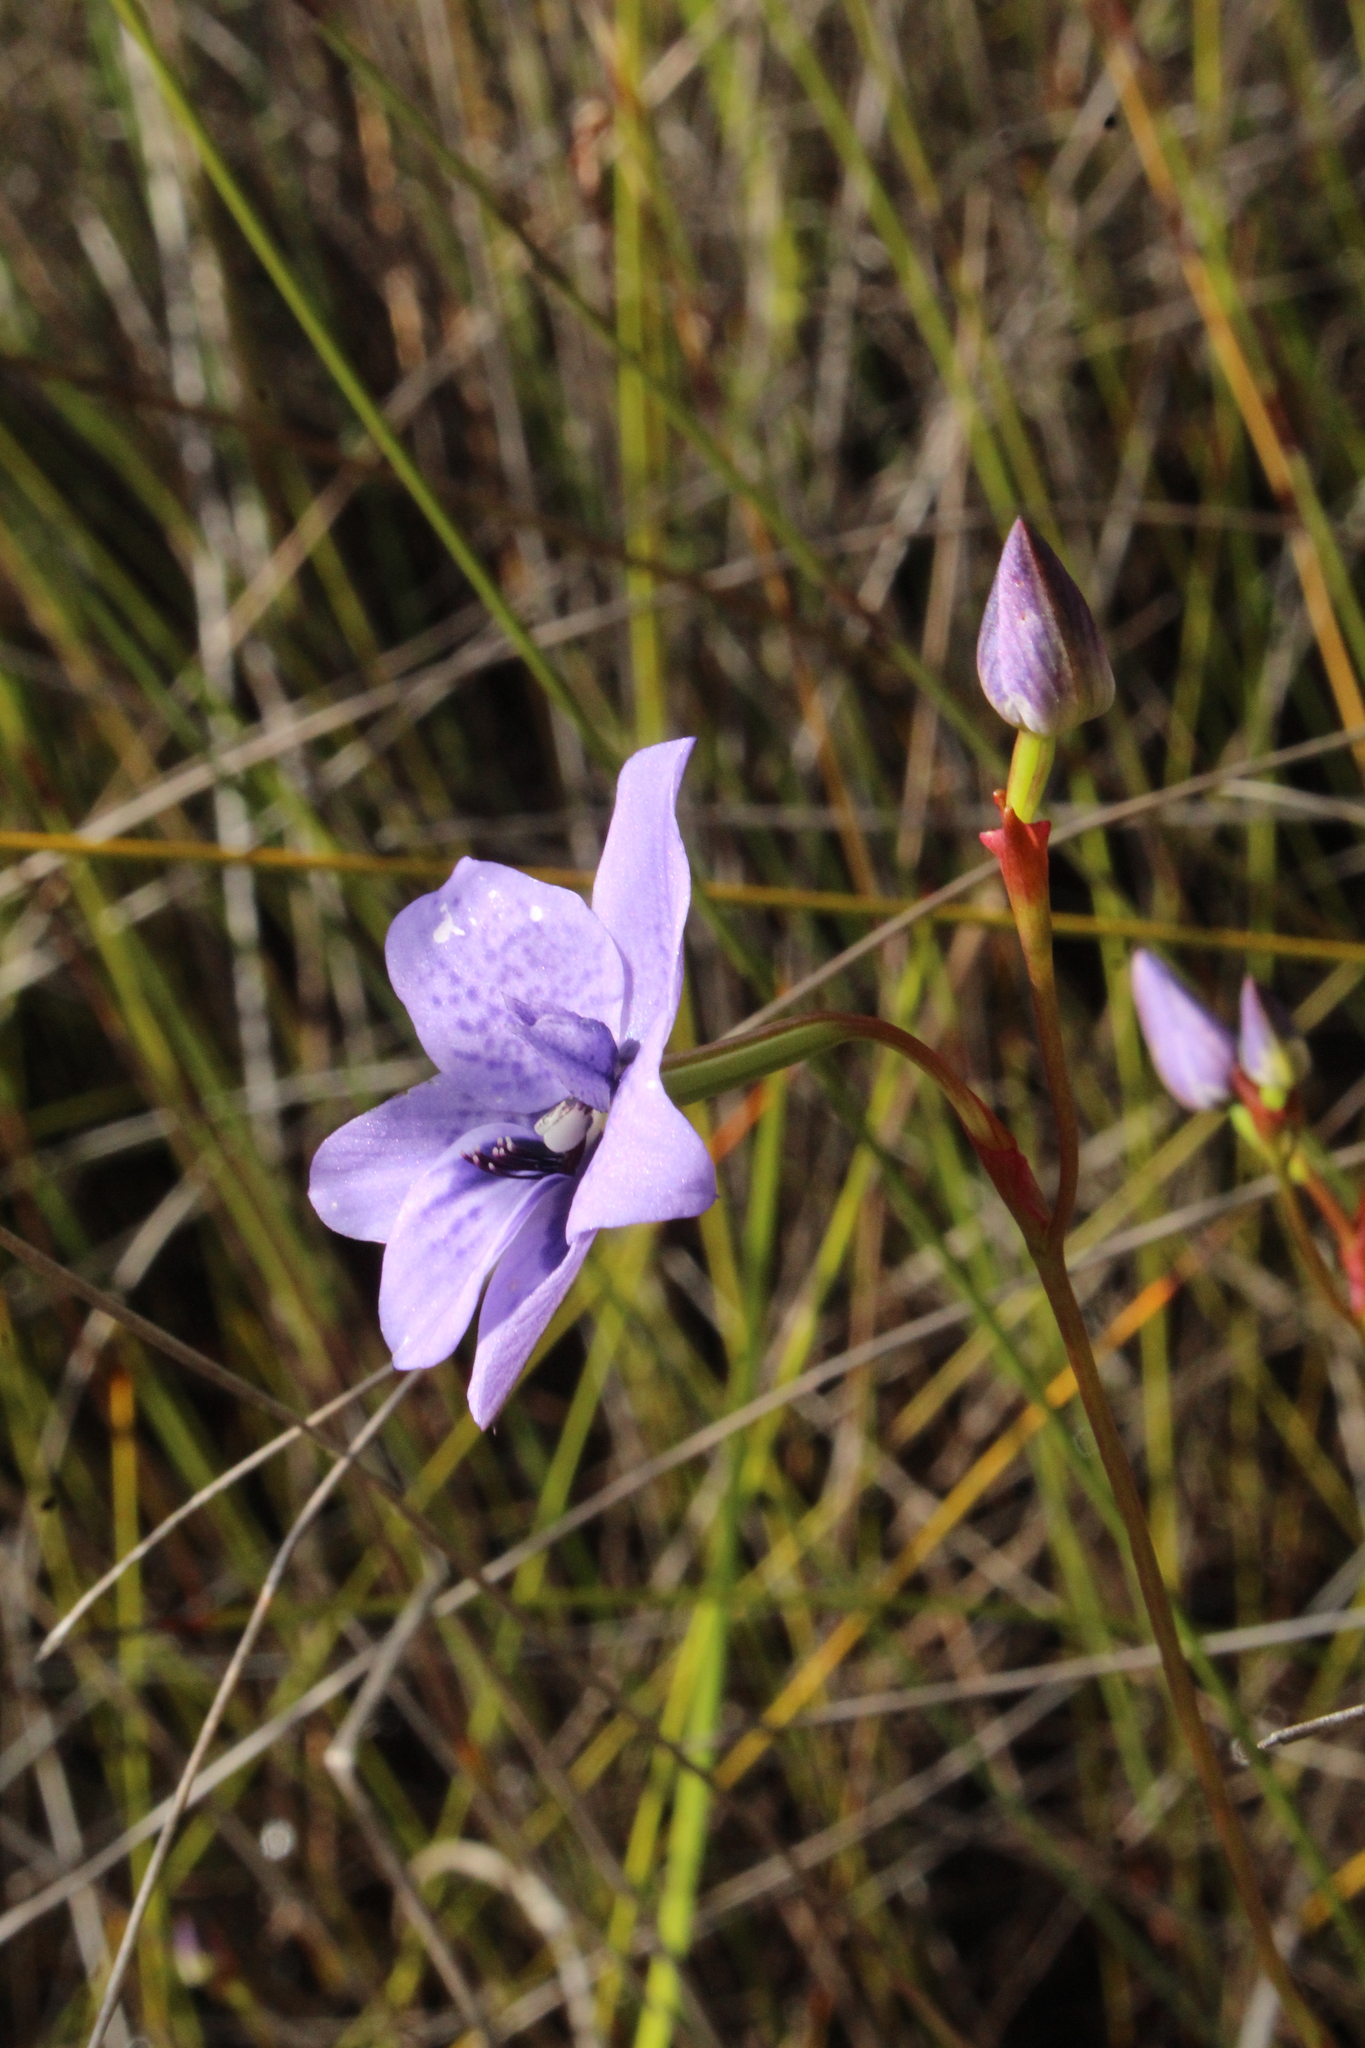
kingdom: Plantae
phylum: Tracheophyta
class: Liliopsida
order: Asparagales
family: Orchidaceae
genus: Epiblema
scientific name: Epiblema grandiflorum
